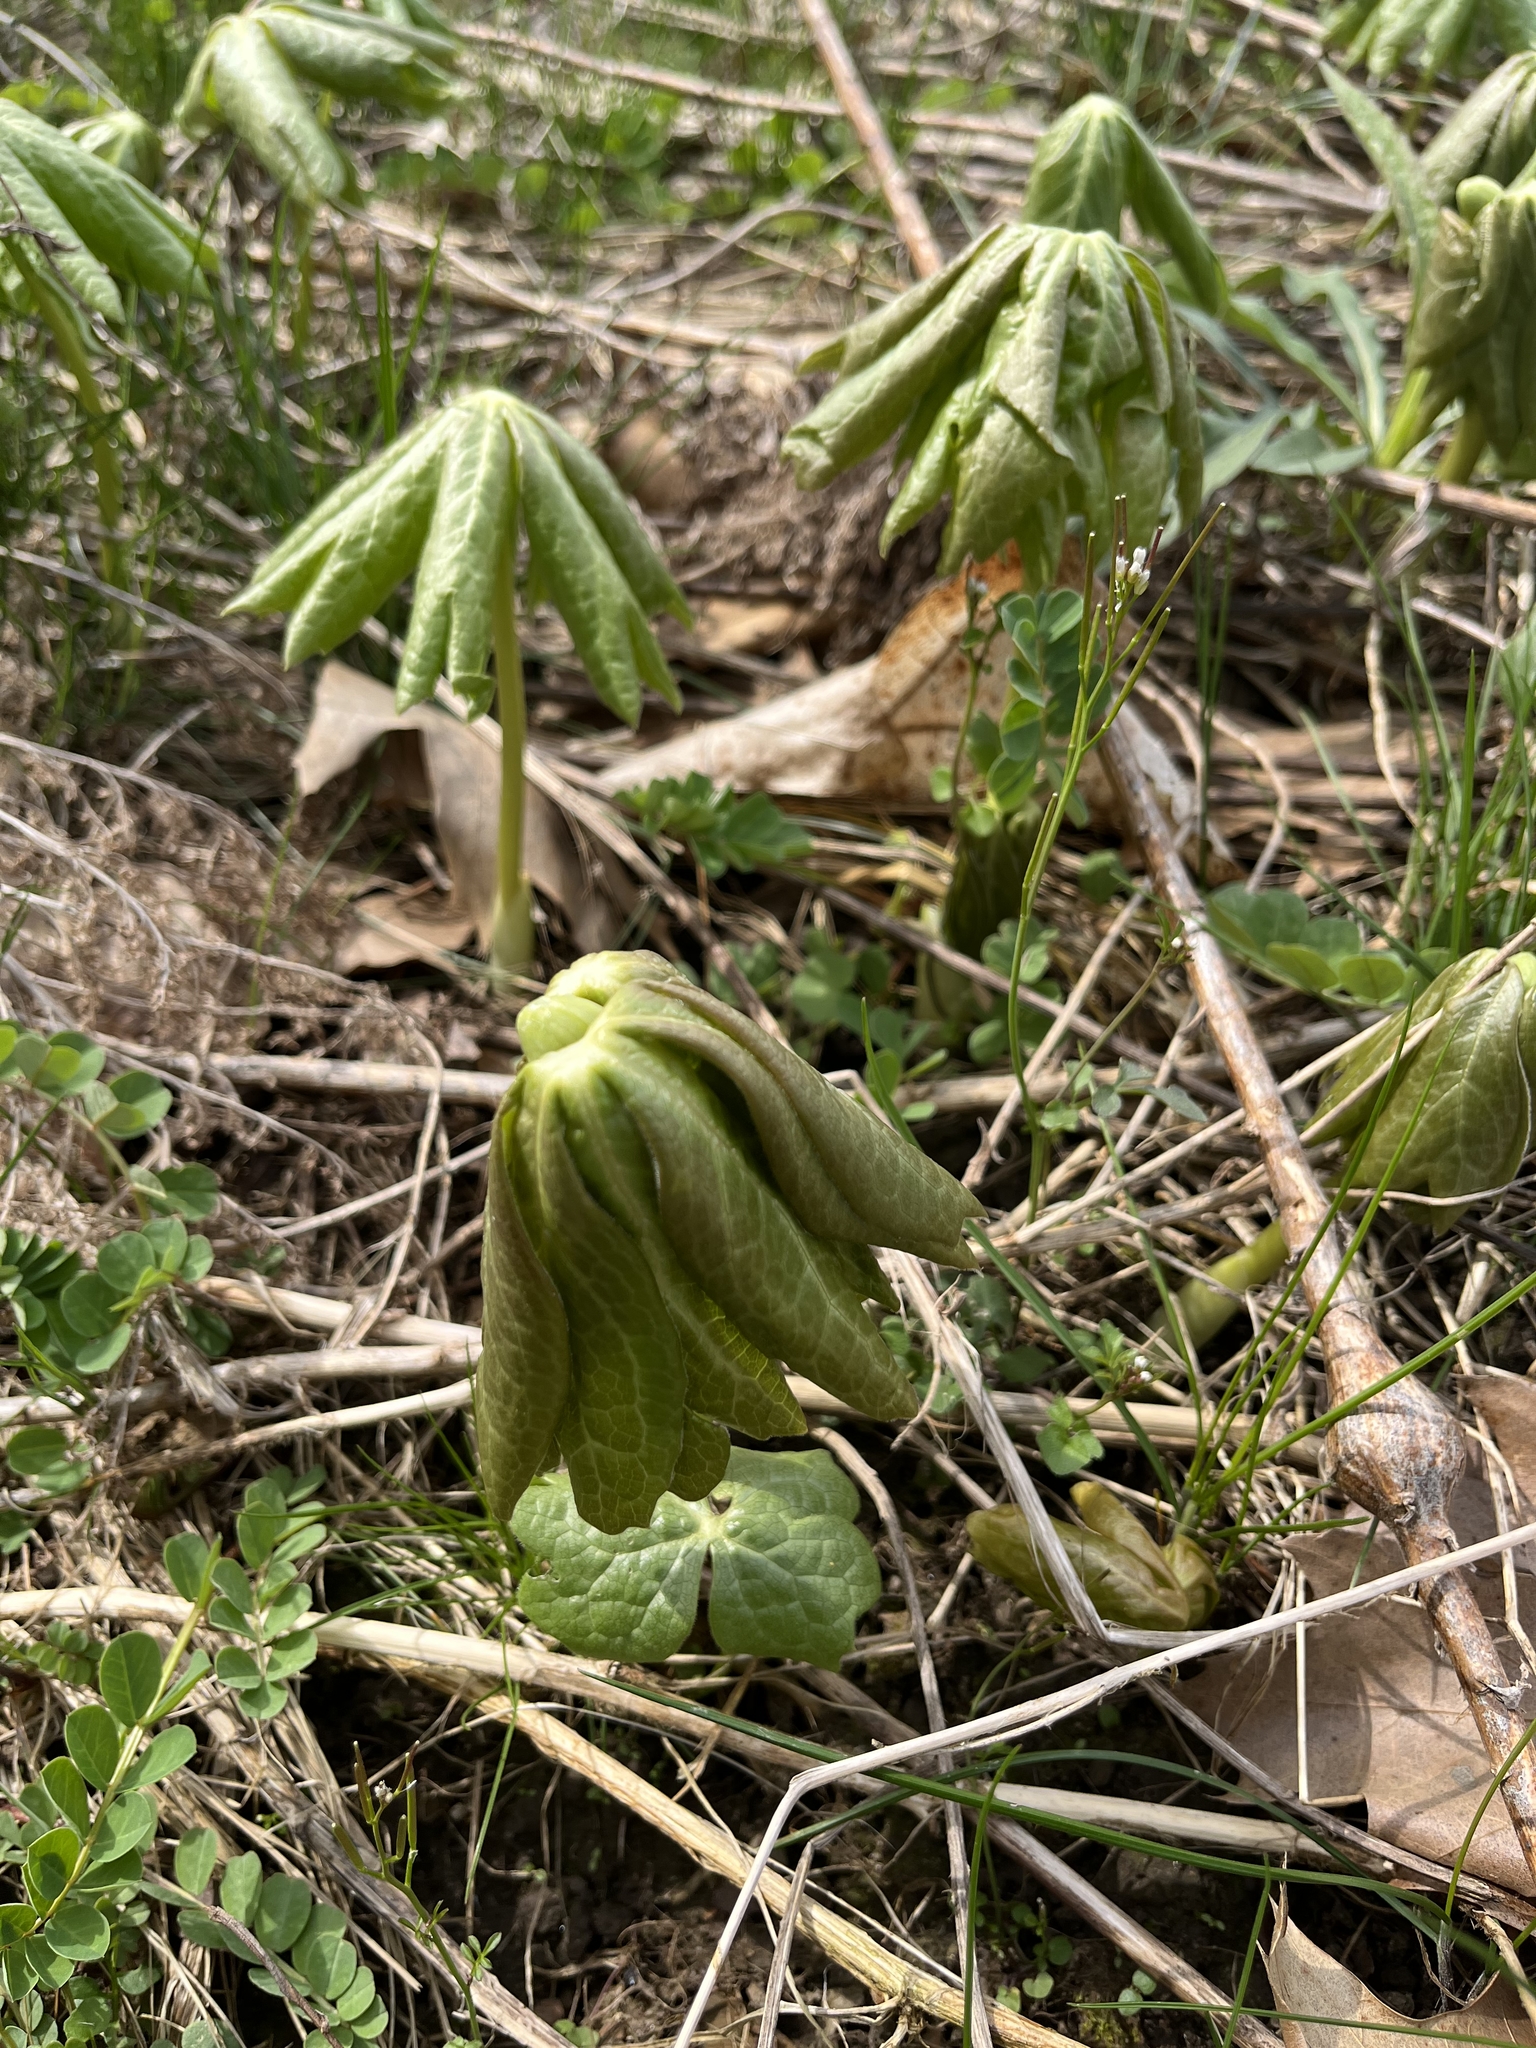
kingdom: Plantae
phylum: Tracheophyta
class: Magnoliopsida
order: Ranunculales
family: Berberidaceae
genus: Podophyllum
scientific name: Podophyllum peltatum
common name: Wild mandrake
